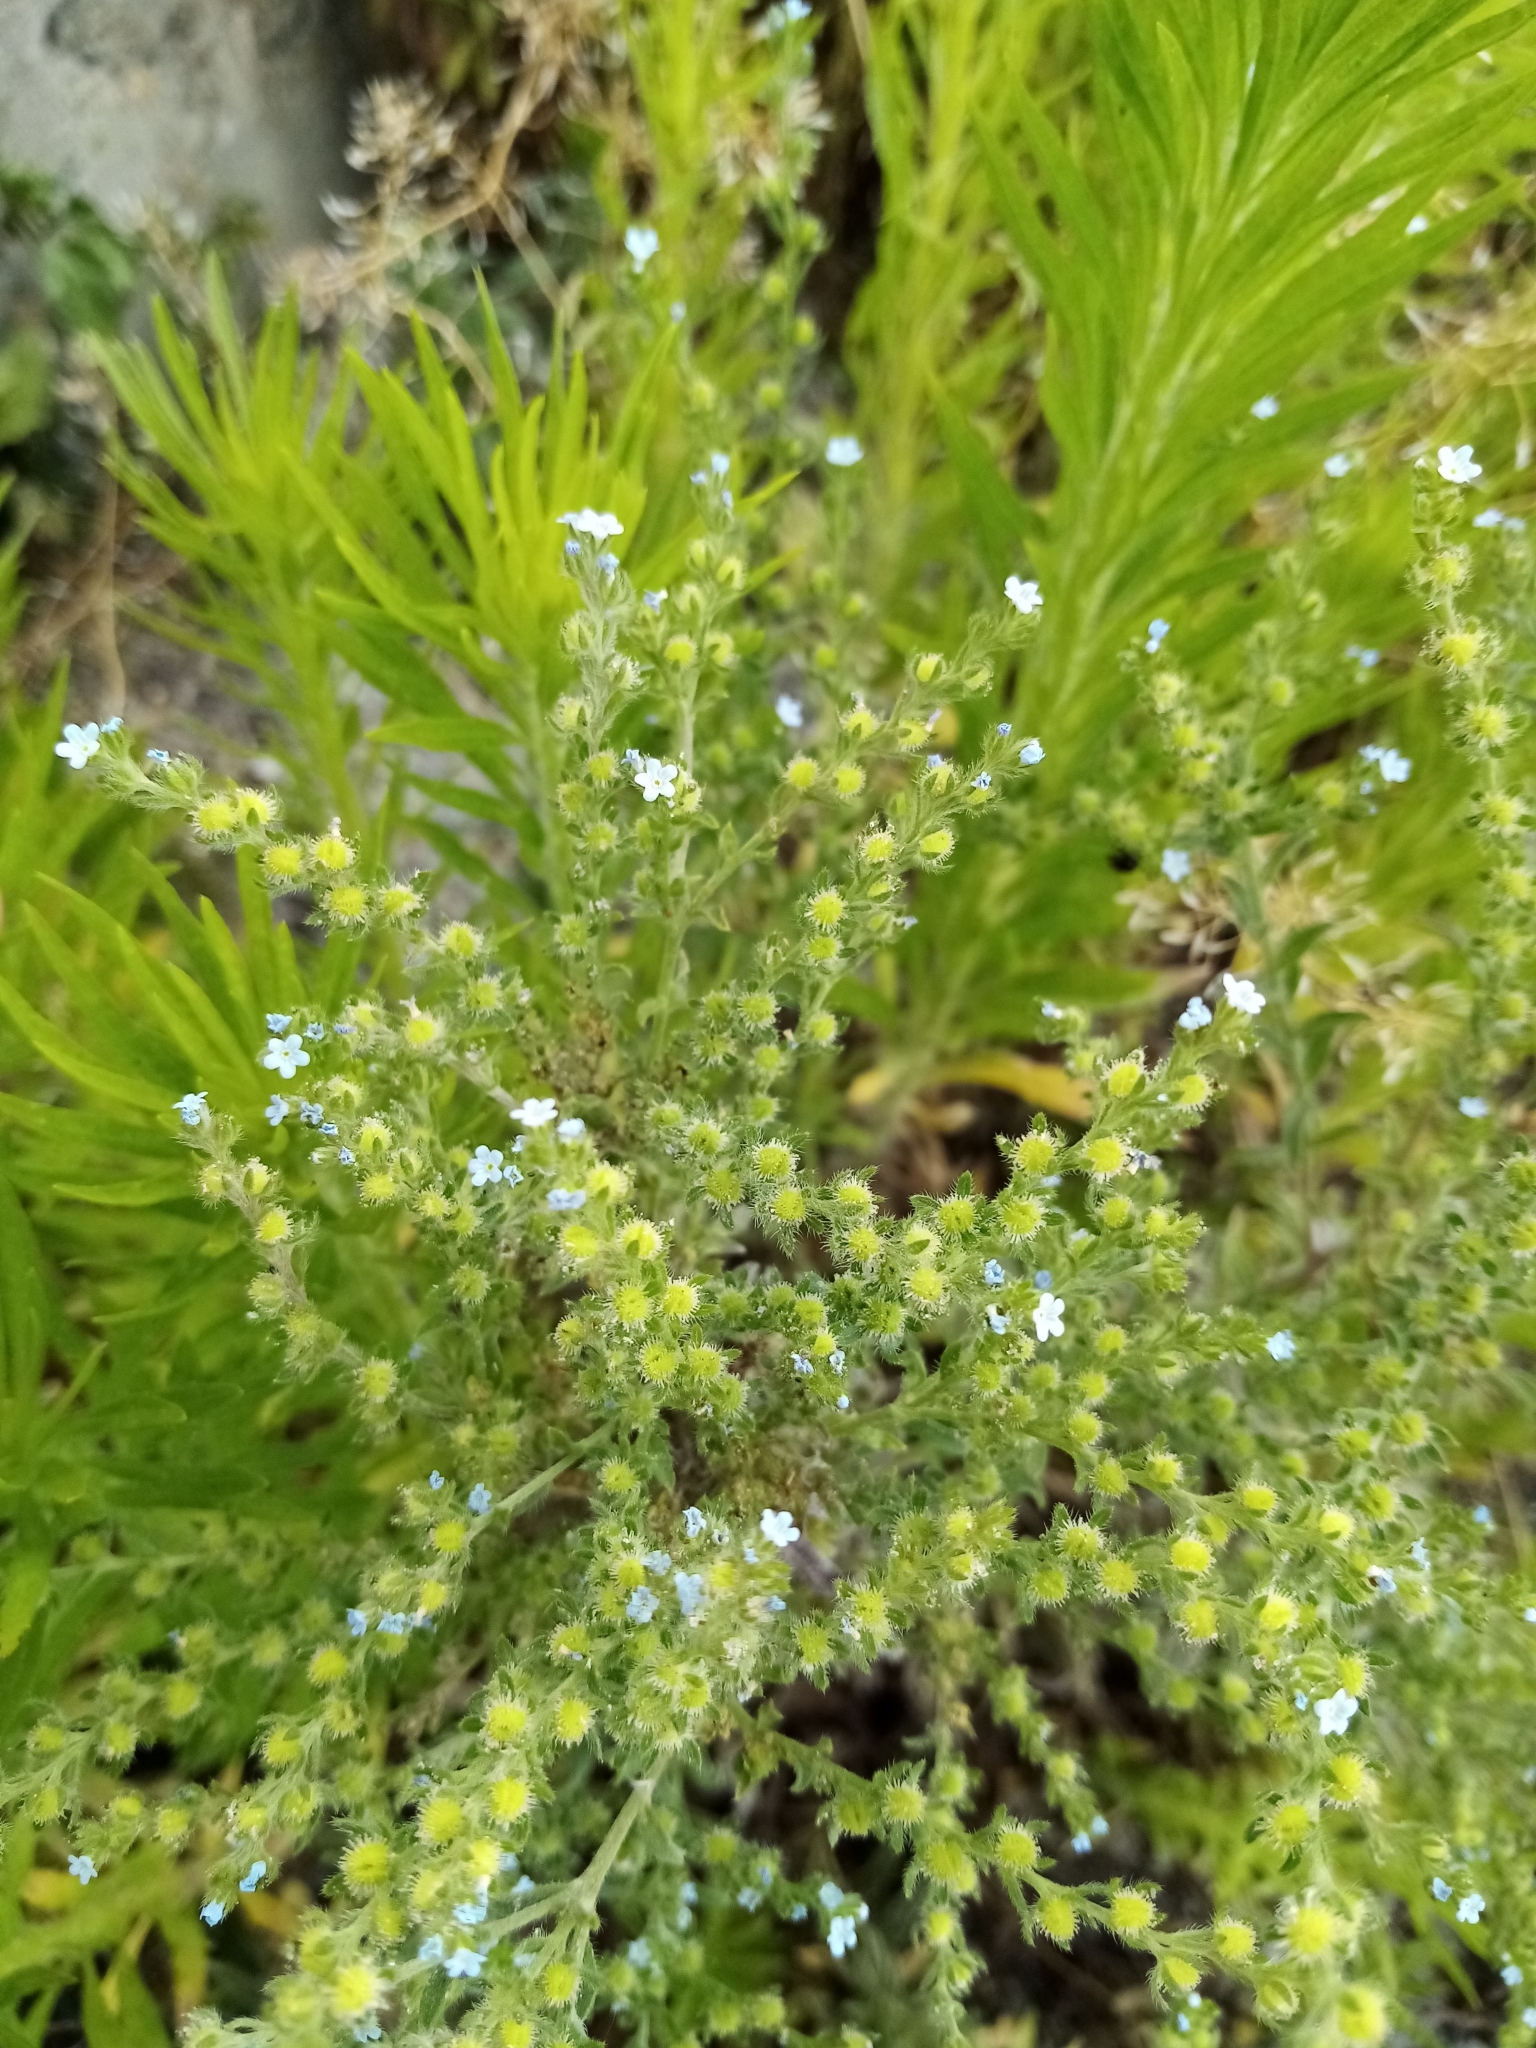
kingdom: Plantae
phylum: Tracheophyta
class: Magnoliopsida
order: Boraginales
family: Boraginaceae
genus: Lappula
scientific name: Lappula squarrosa
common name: European stickseed
